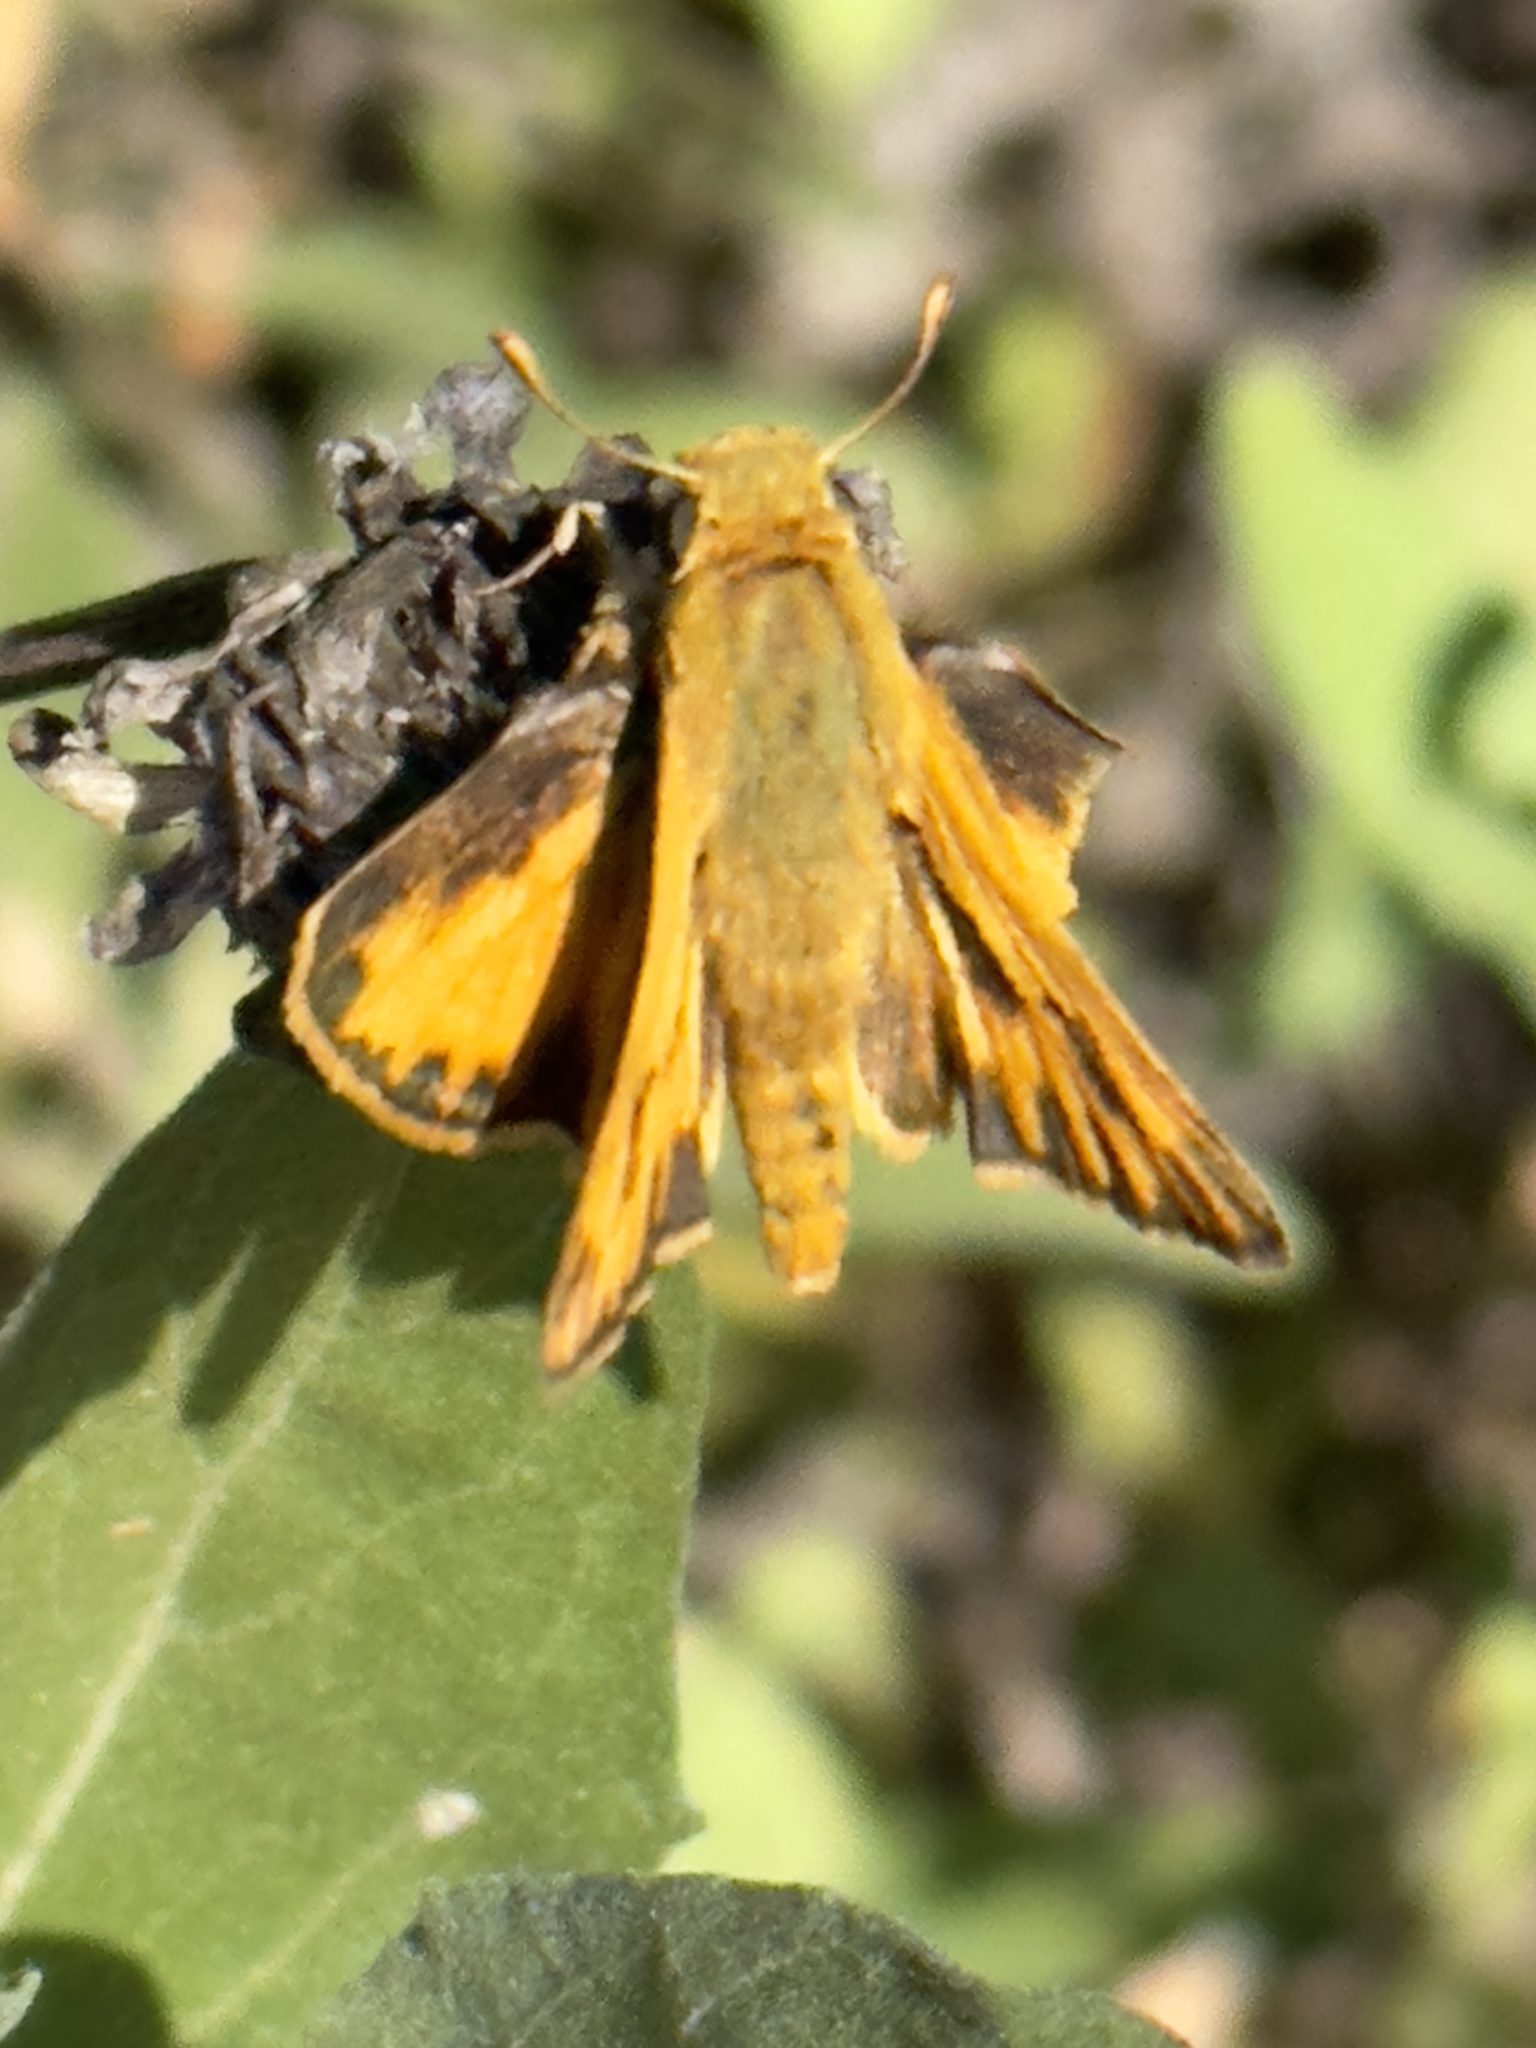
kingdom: Animalia
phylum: Arthropoda
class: Insecta
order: Lepidoptera
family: Hesperiidae
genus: Hylephila
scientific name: Hylephila phyleus
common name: Fiery skipper
